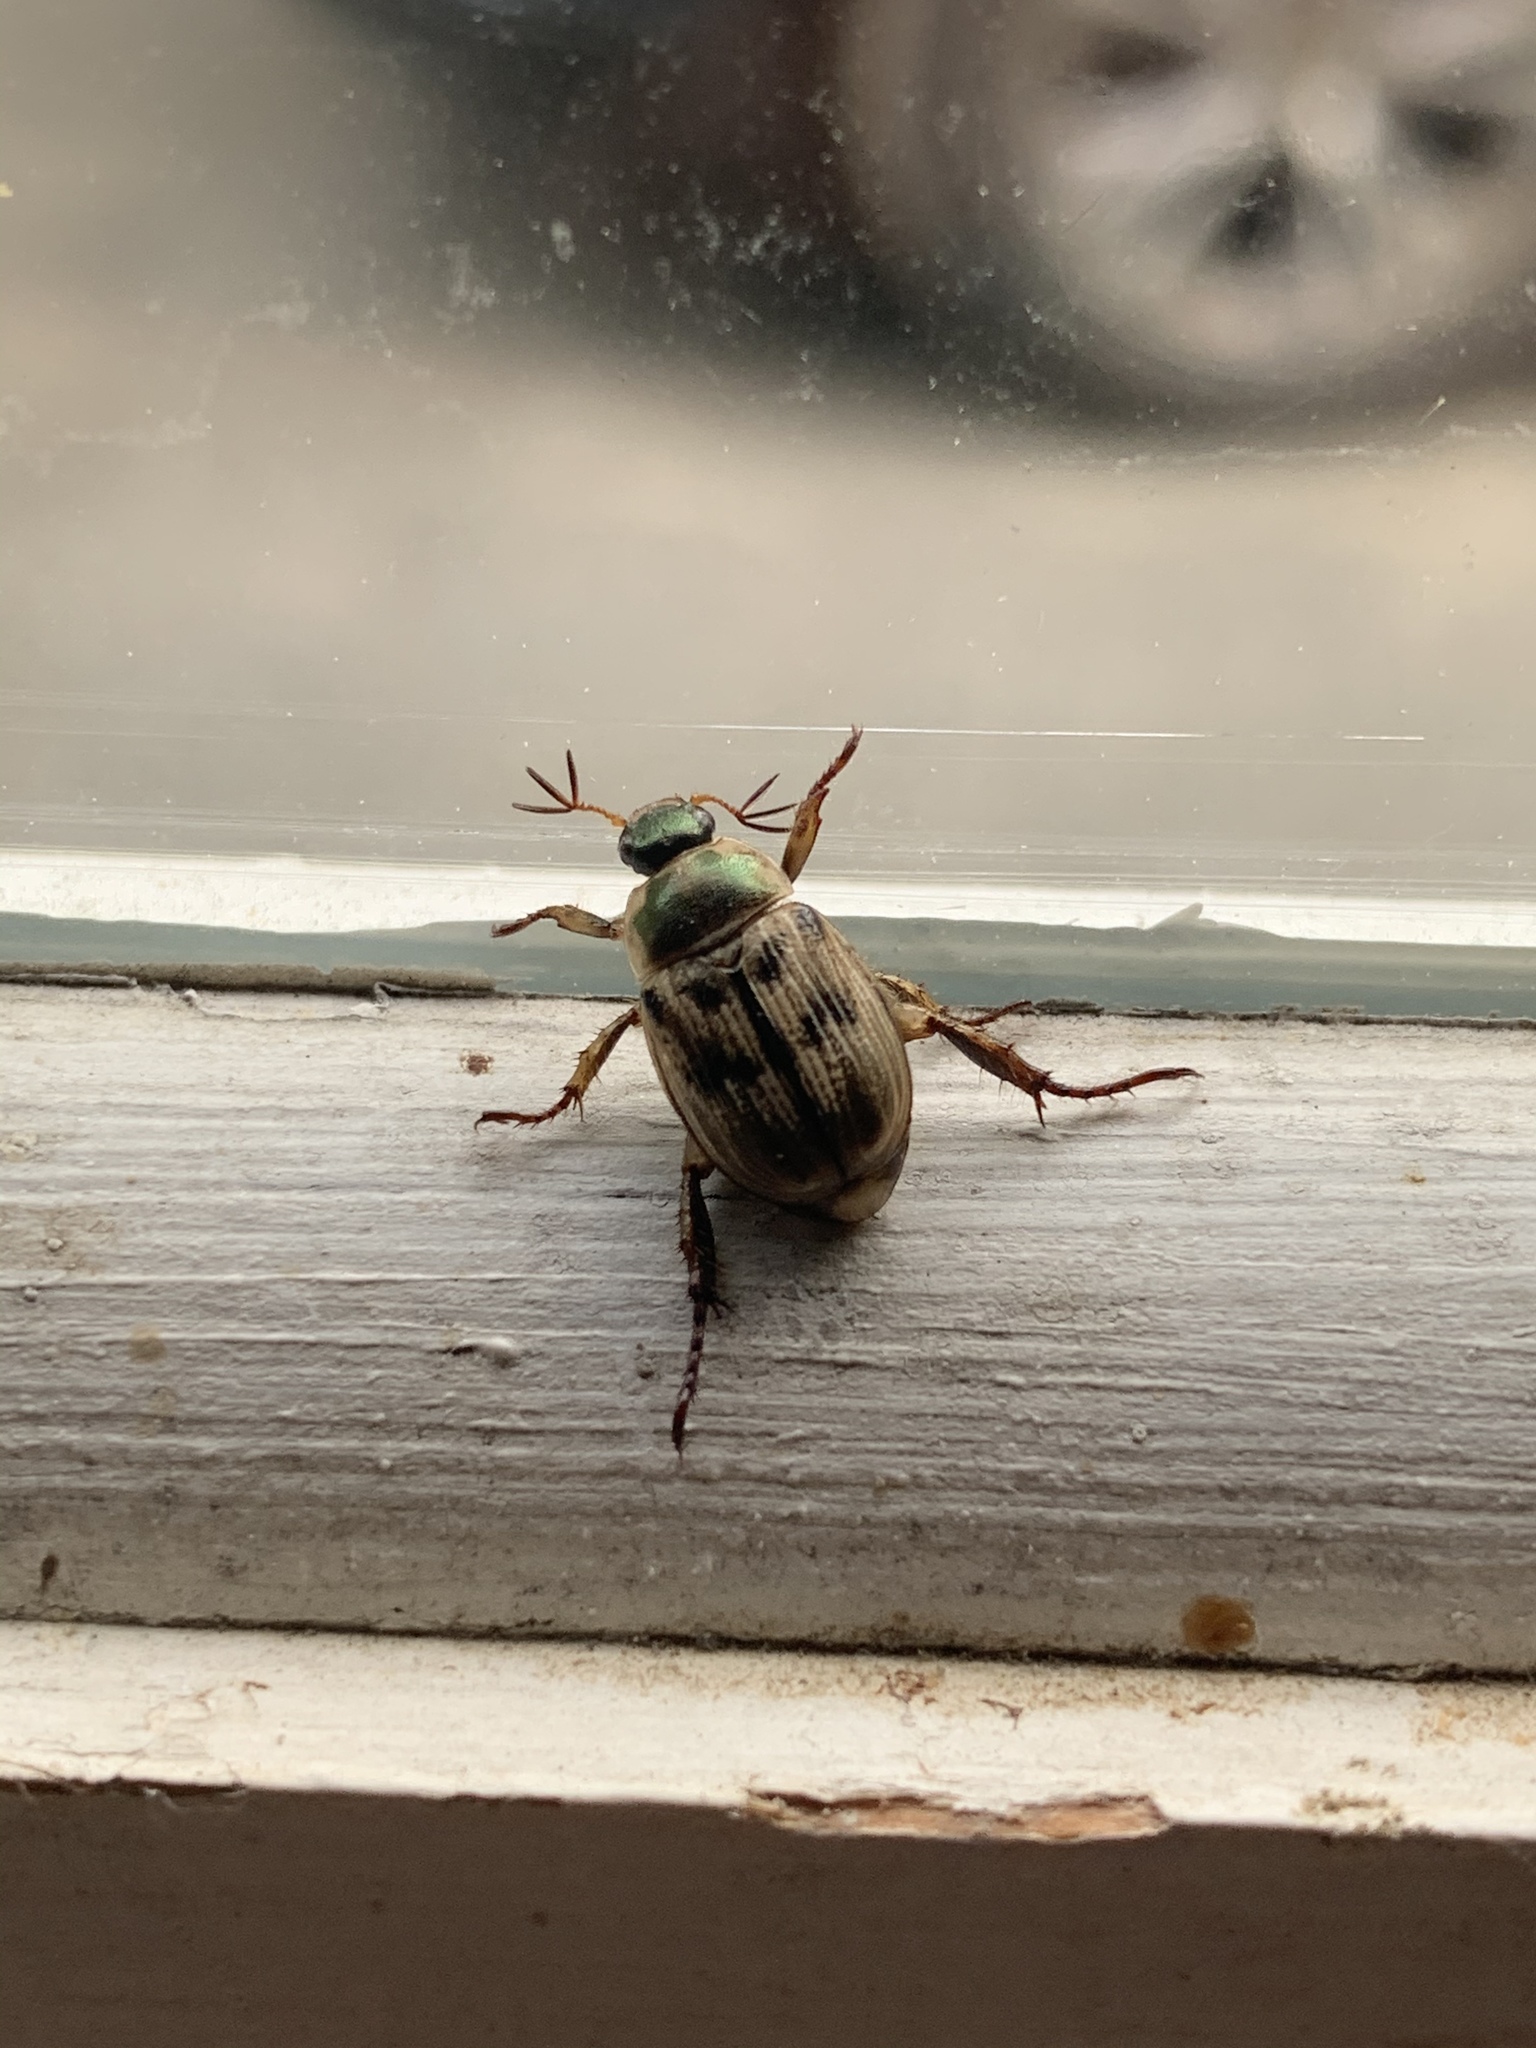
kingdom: Animalia
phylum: Arthropoda
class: Insecta
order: Coleoptera
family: Scarabaeidae
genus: Exomala
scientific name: Exomala orientalis
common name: Oriental beetle
